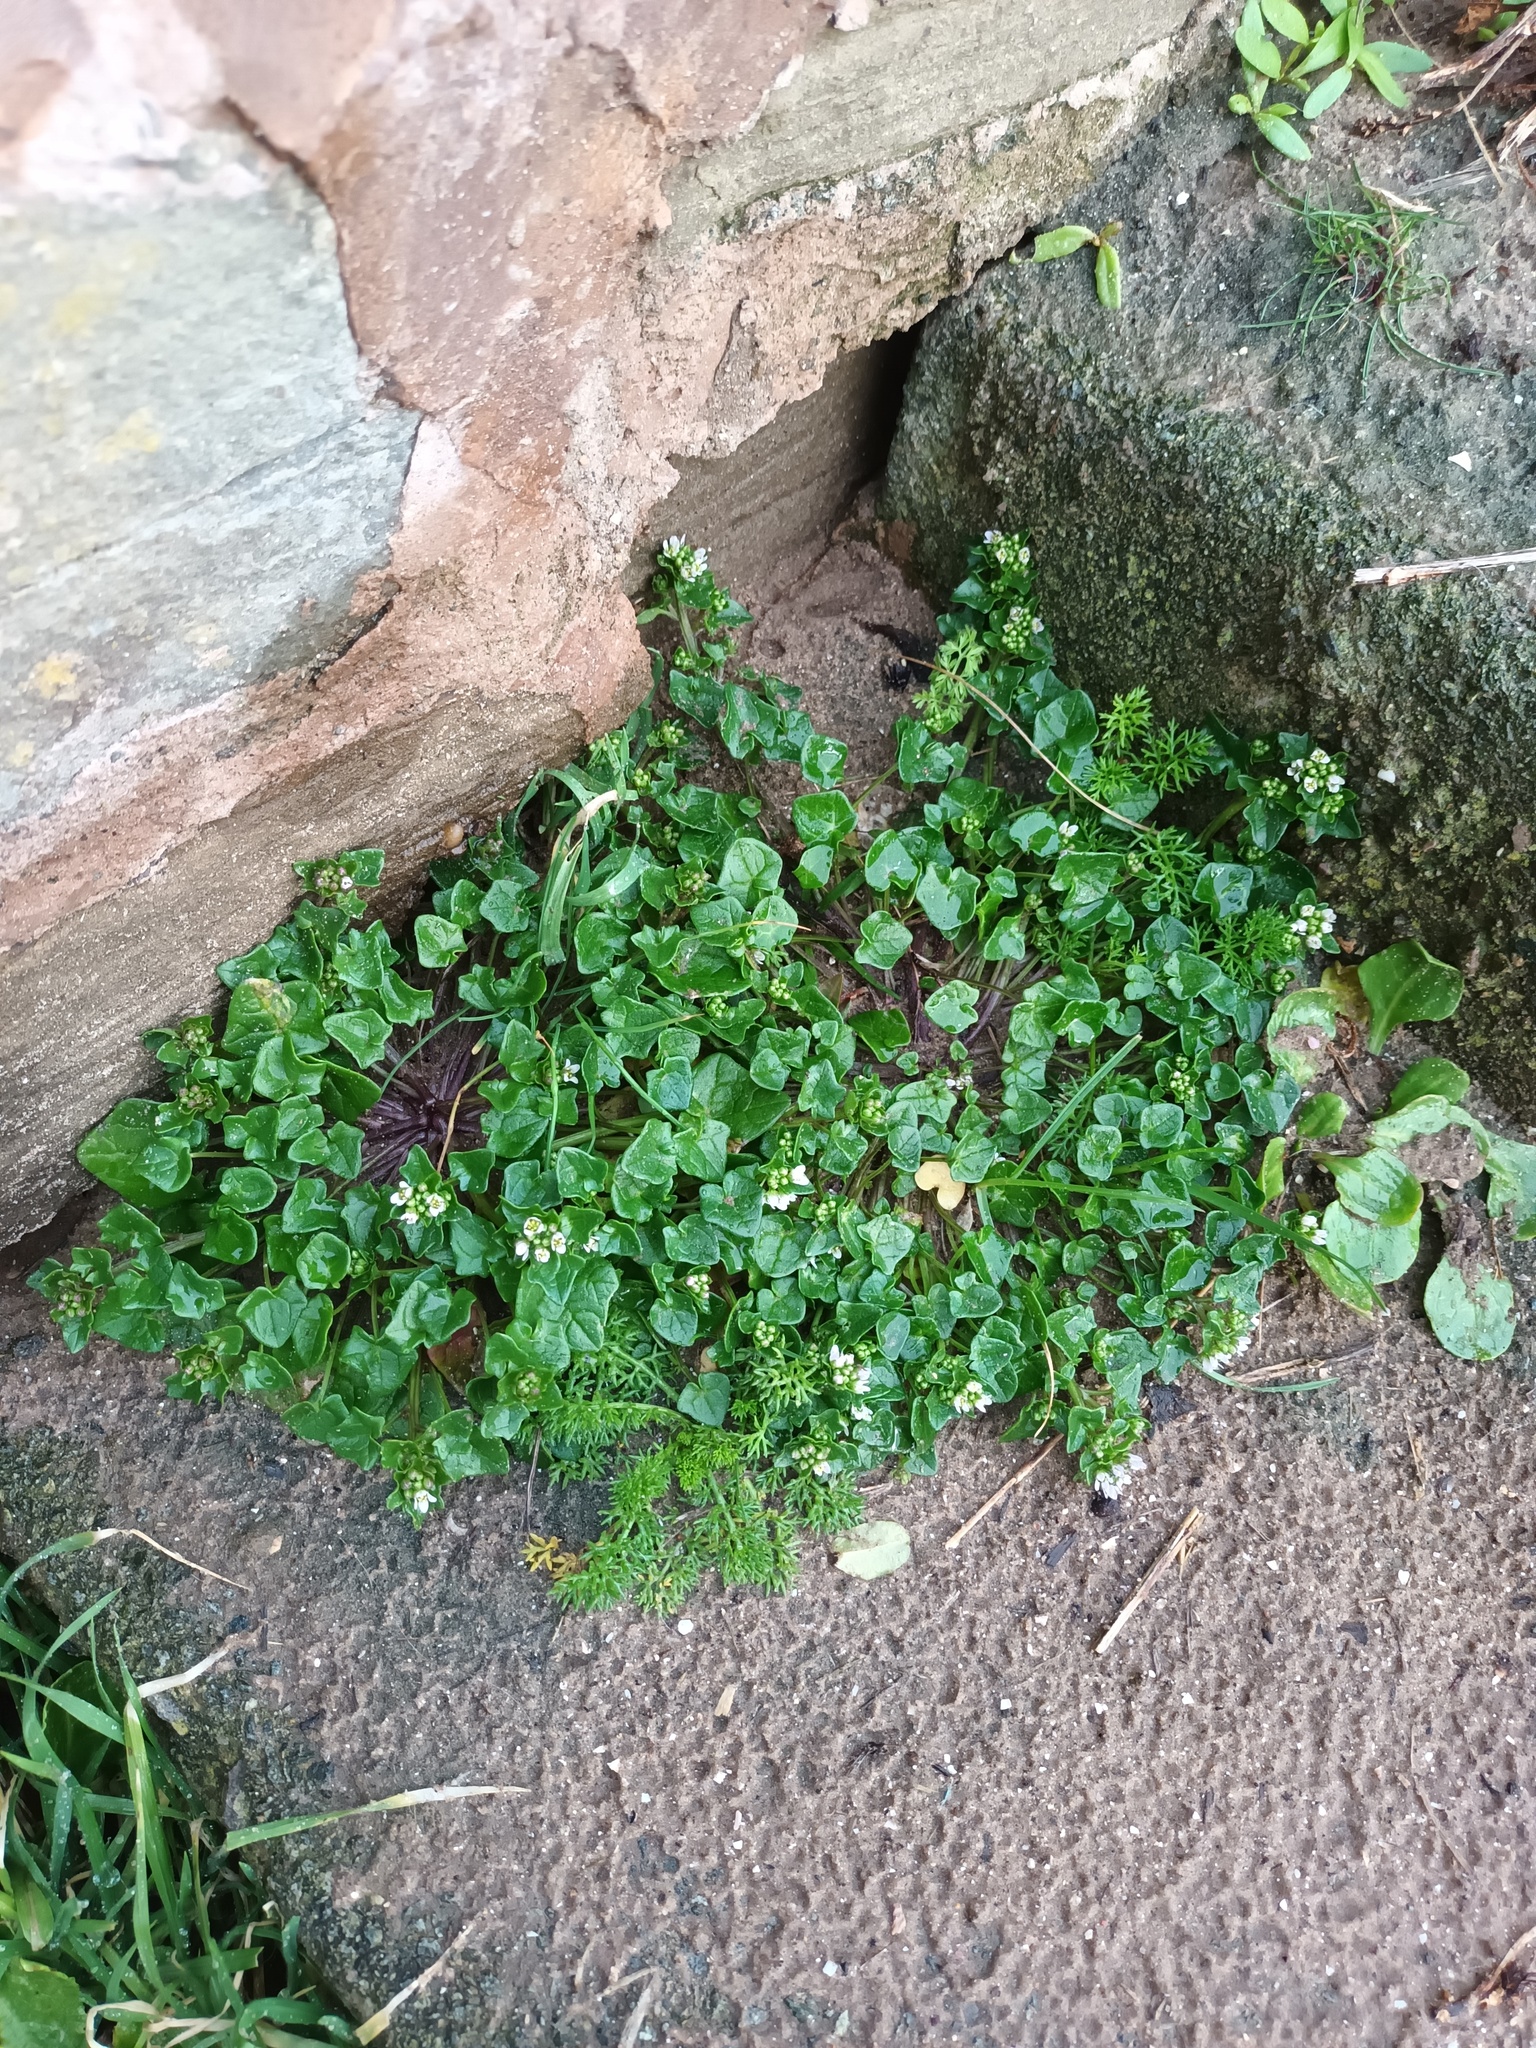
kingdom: Plantae
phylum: Tracheophyta
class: Magnoliopsida
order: Brassicales
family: Brassicaceae
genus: Cochlearia
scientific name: Cochlearia danica
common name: Early scurvygrass
